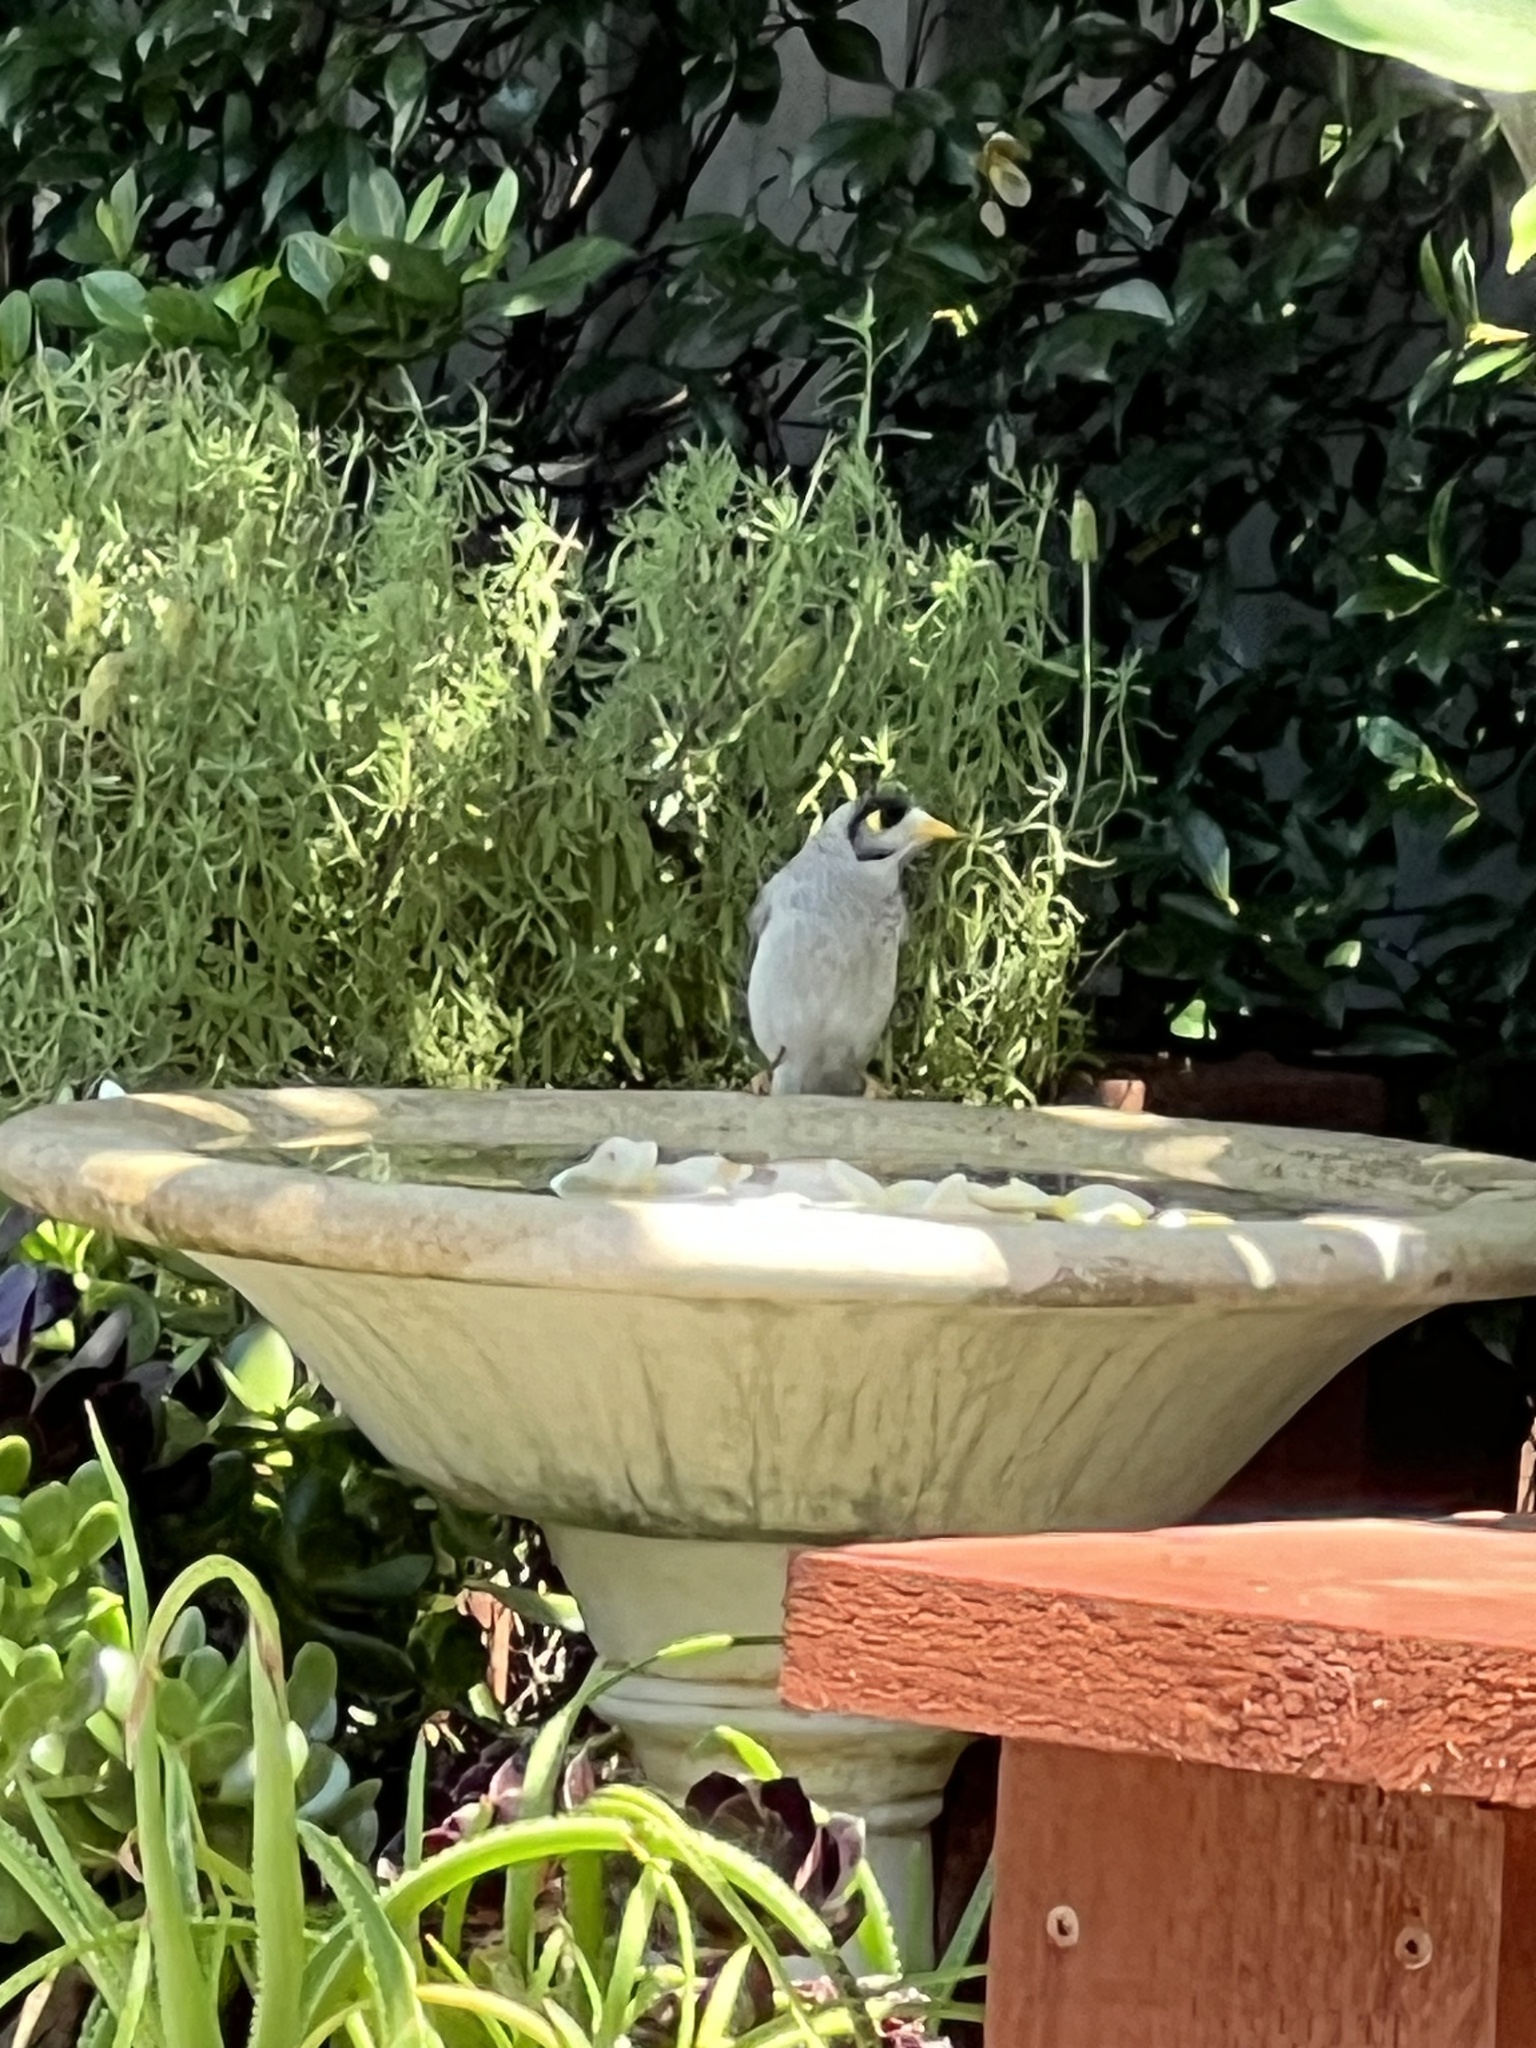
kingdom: Animalia
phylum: Chordata
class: Aves
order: Passeriformes
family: Meliphagidae
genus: Manorina
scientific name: Manorina melanocephala
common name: Noisy miner
